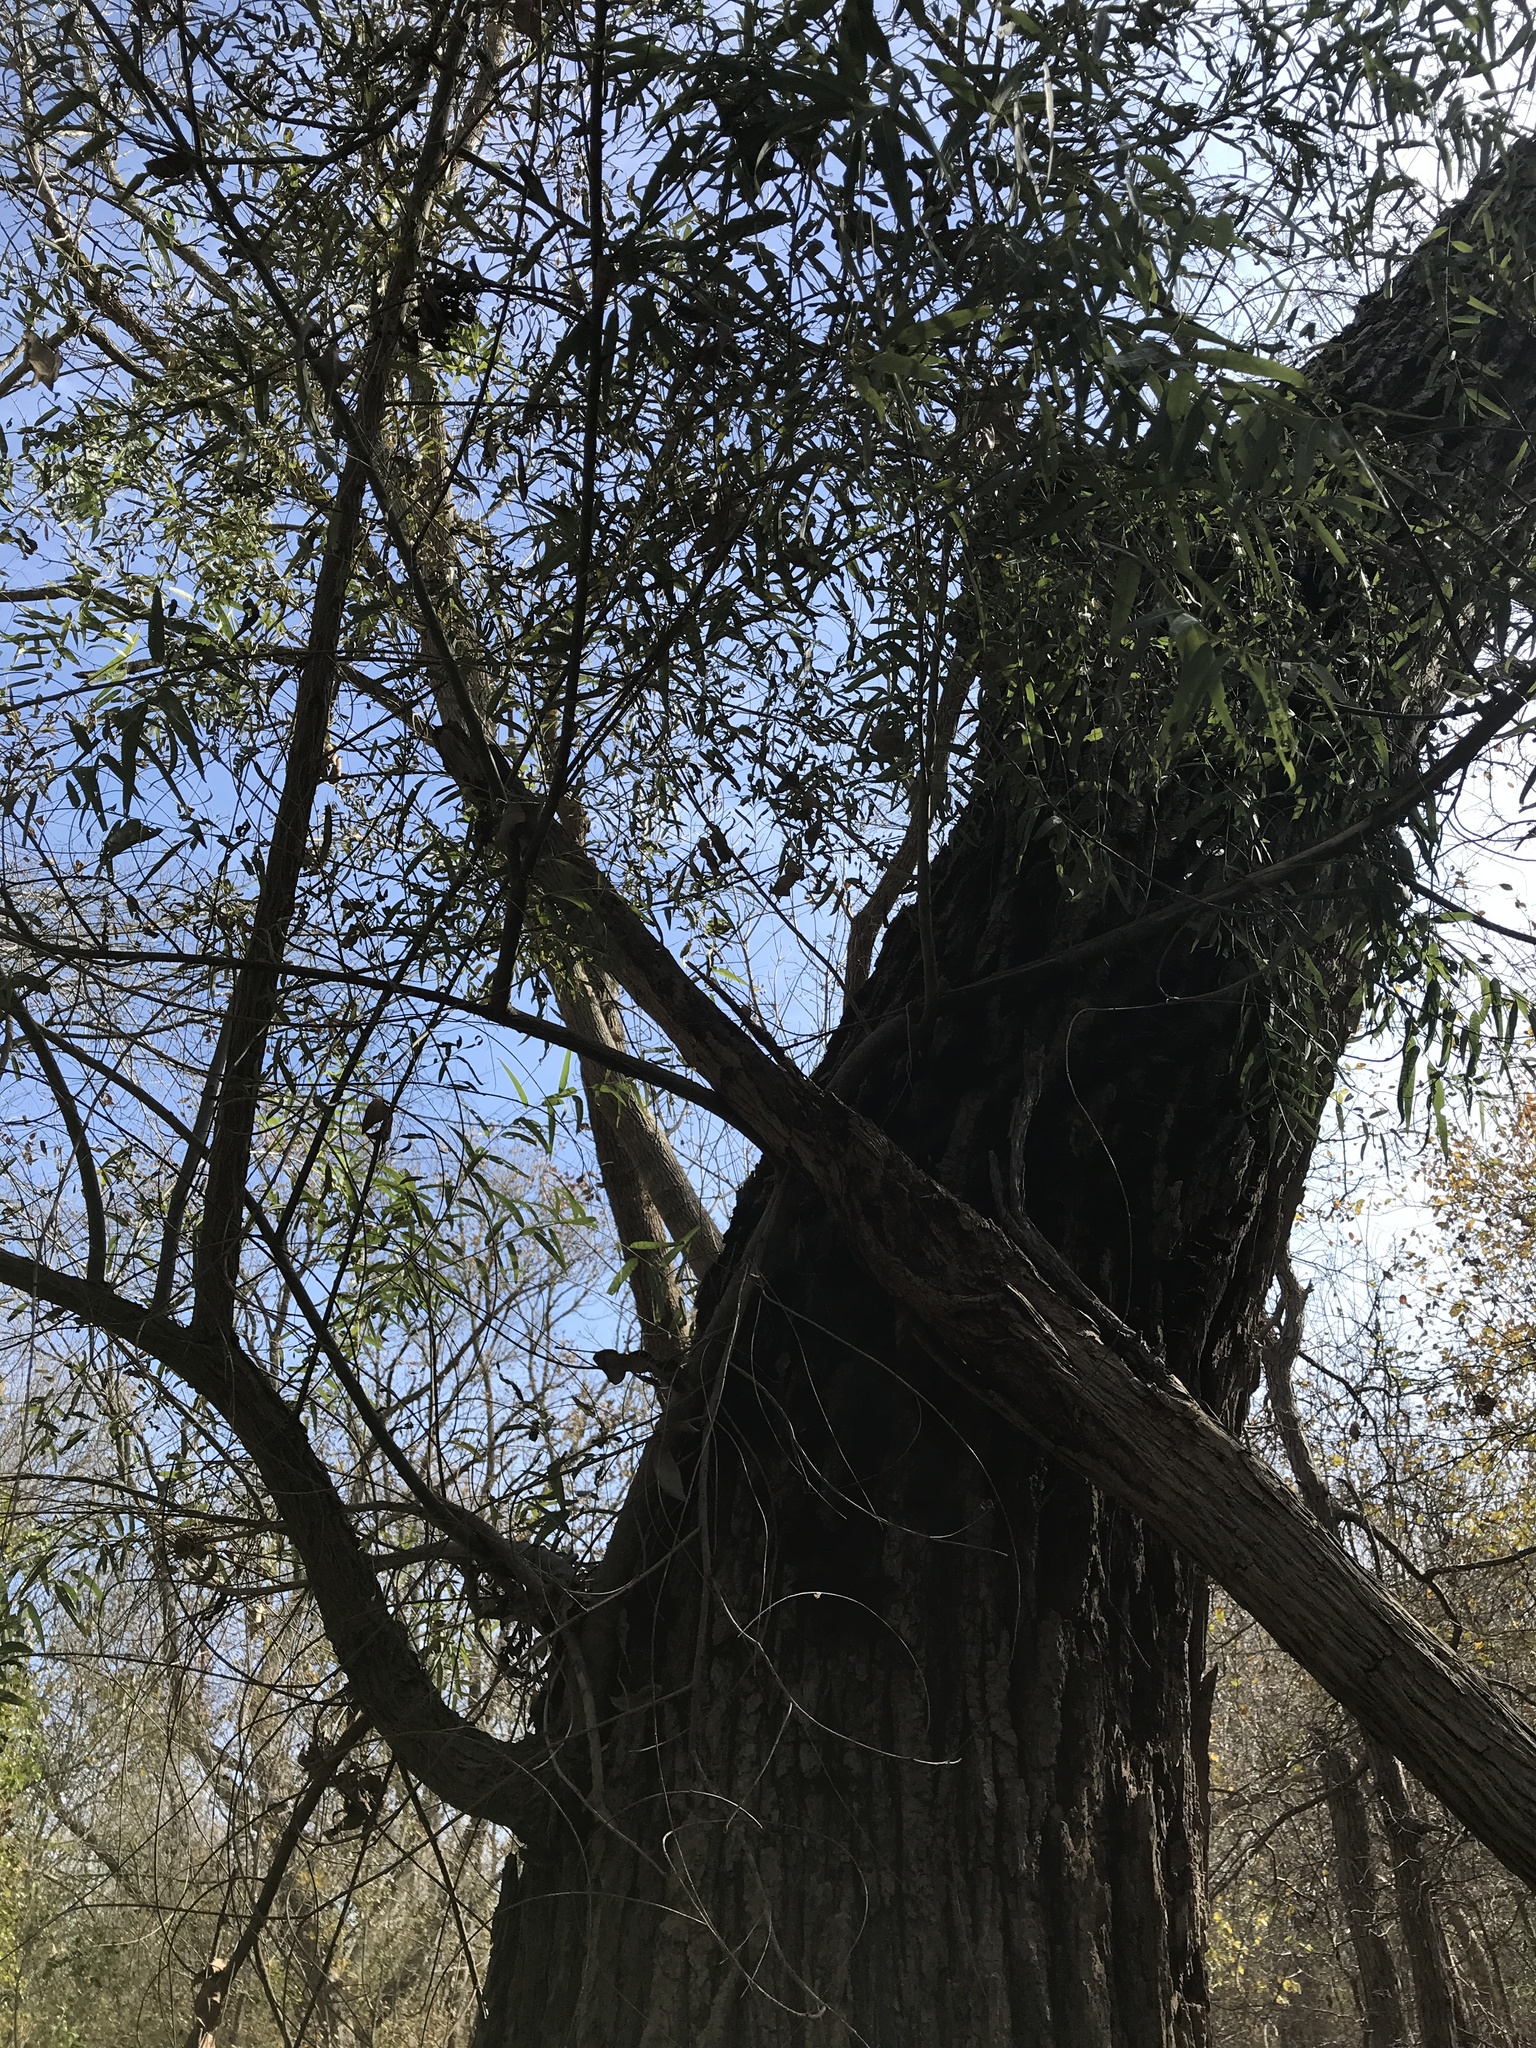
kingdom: Plantae
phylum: Tracheophyta
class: Magnoliopsida
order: Malpighiales
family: Salicaceae
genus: Salix
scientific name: Salix nigra
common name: Black willow
